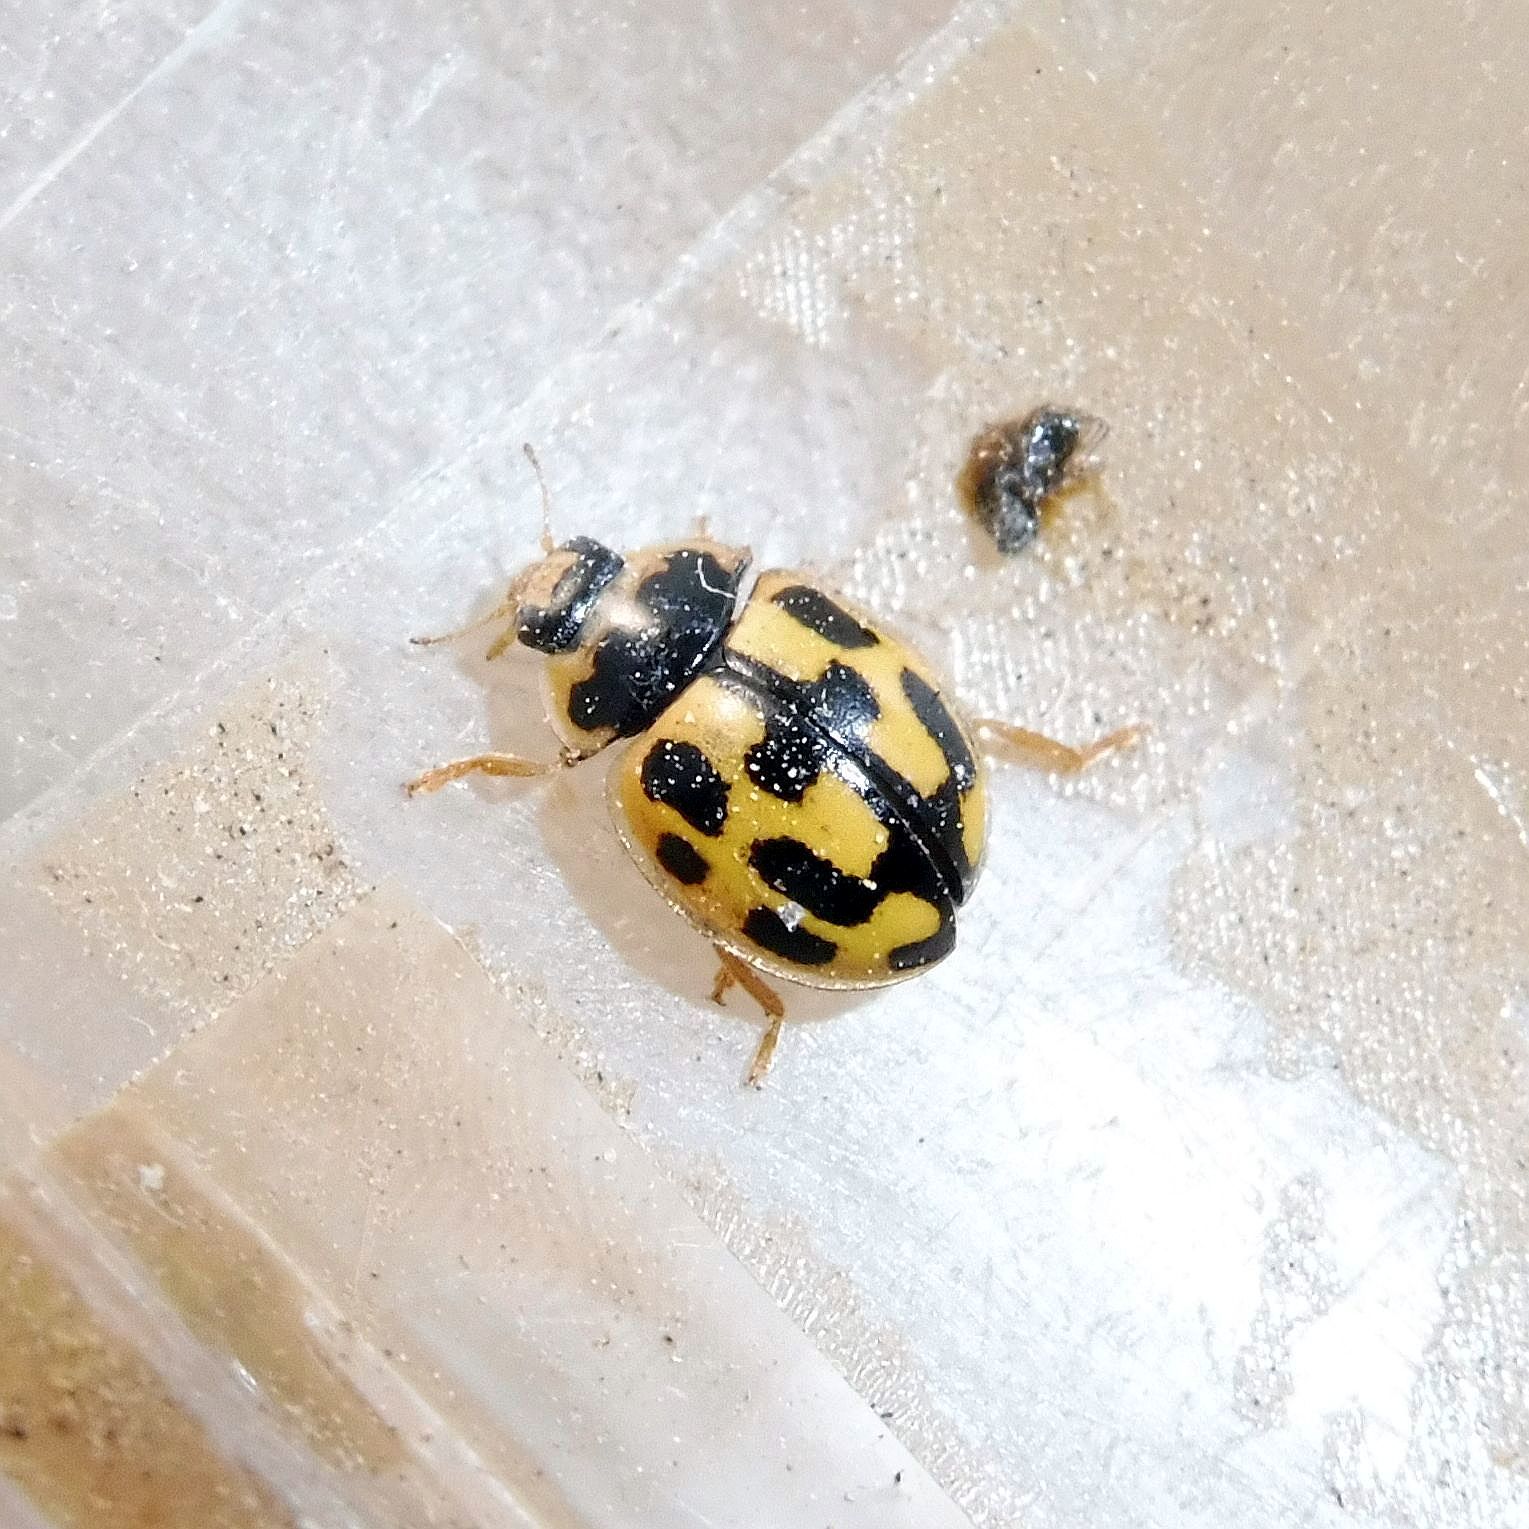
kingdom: Animalia
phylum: Arthropoda
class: Insecta
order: Coleoptera
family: Coccinellidae
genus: Propylaea
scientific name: Propylaea quatuordecimpunctata
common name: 14-spotted ladybird beetle
